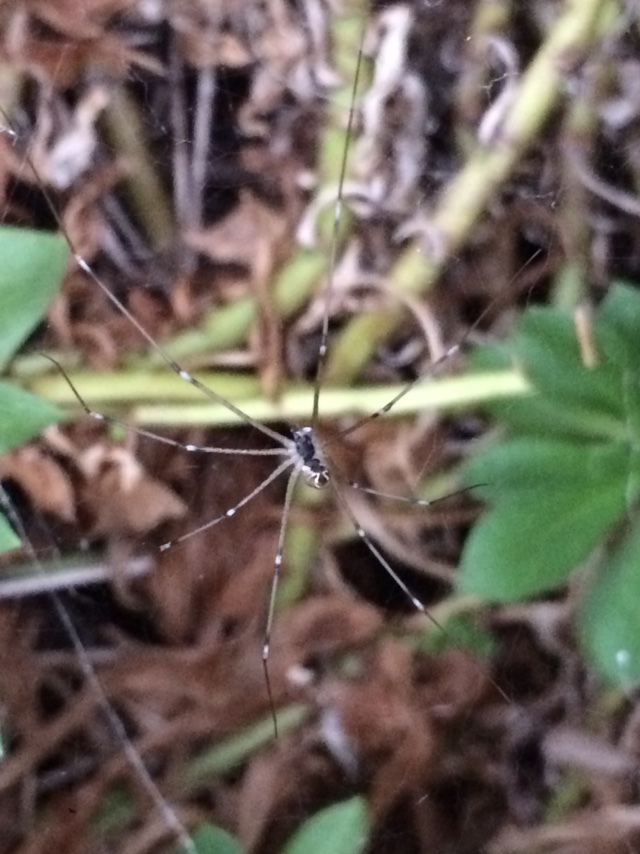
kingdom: Animalia
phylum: Arthropoda
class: Arachnida
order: Araneae
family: Pholcidae
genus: Holocnemus
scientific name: Holocnemus pluchei
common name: Marbled cellar spider
